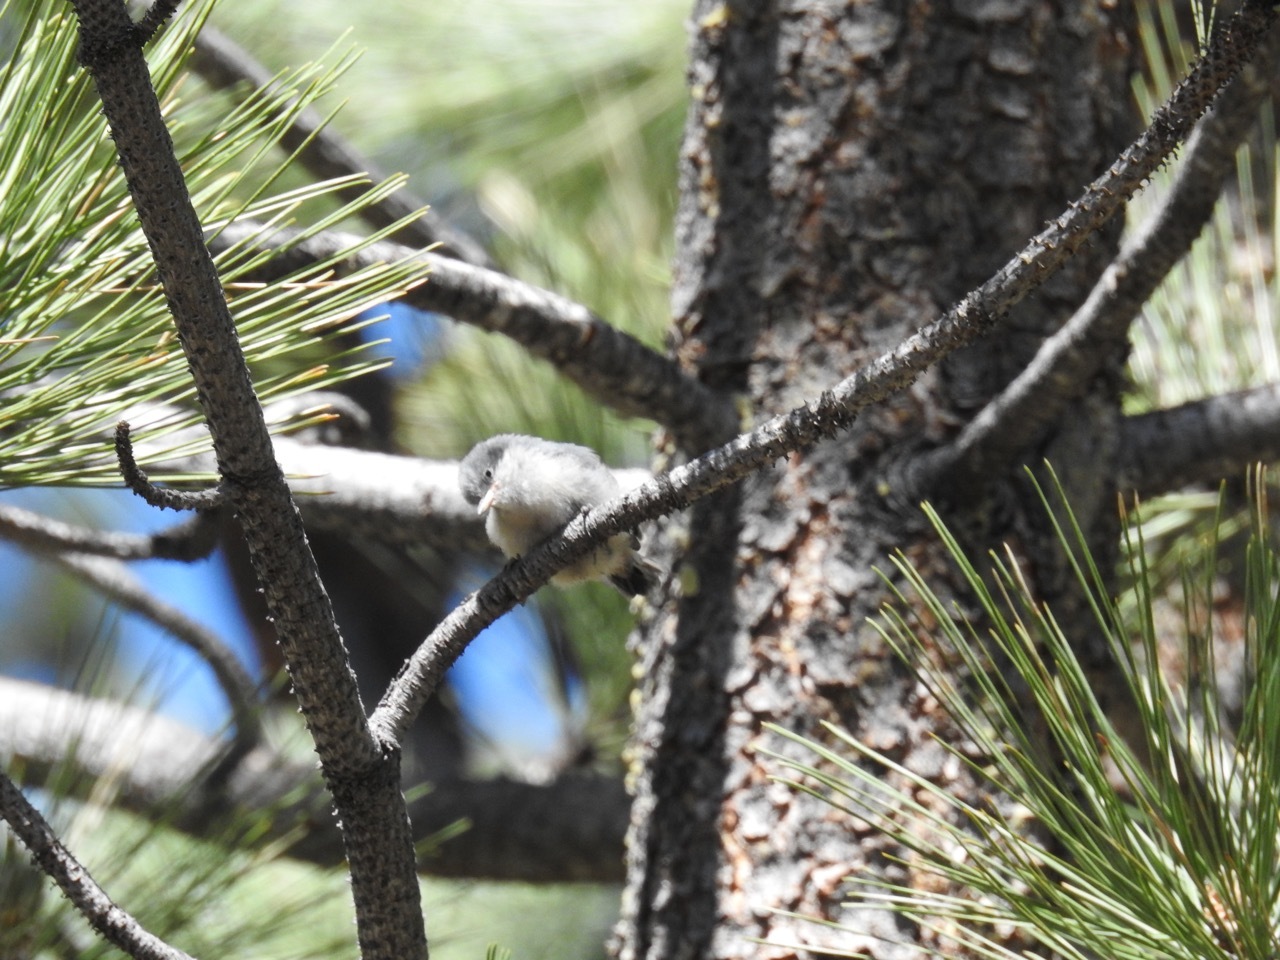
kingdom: Animalia
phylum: Chordata
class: Aves
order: Passeriformes
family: Sittidae
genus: Sitta
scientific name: Sitta pygmaea
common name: Pygmy nuthatch
